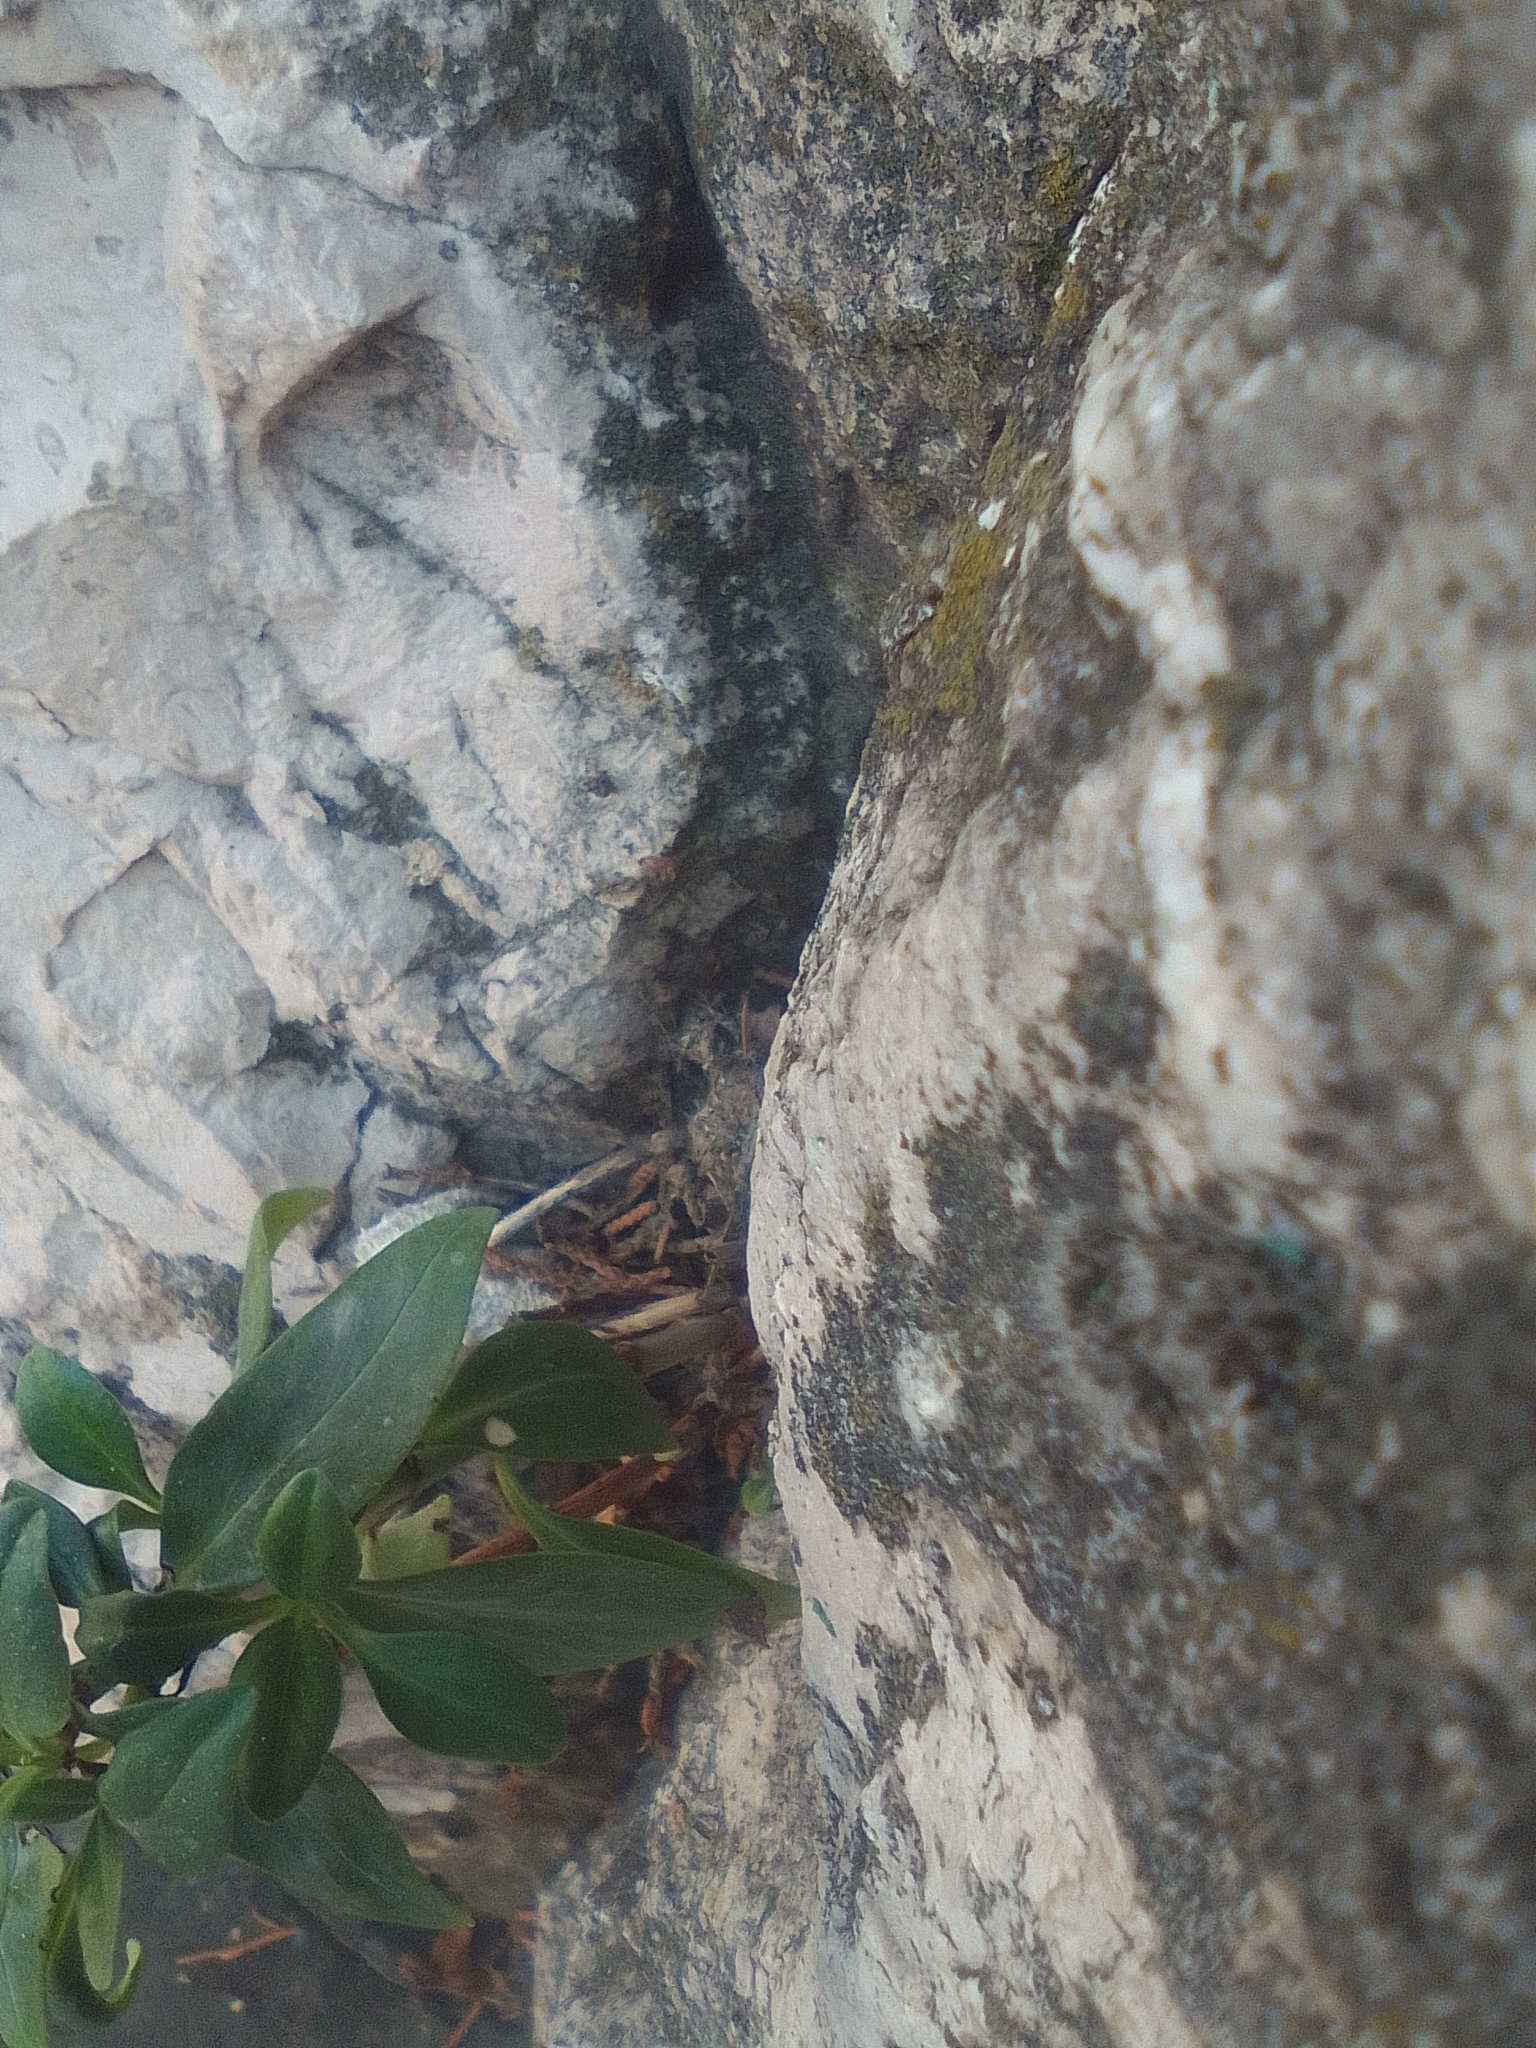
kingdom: Plantae
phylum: Tracheophyta
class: Magnoliopsida
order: Dipsacales
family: Caprifoliaceae
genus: Centranthus
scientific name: Centranthus ruber
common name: Red valerian
